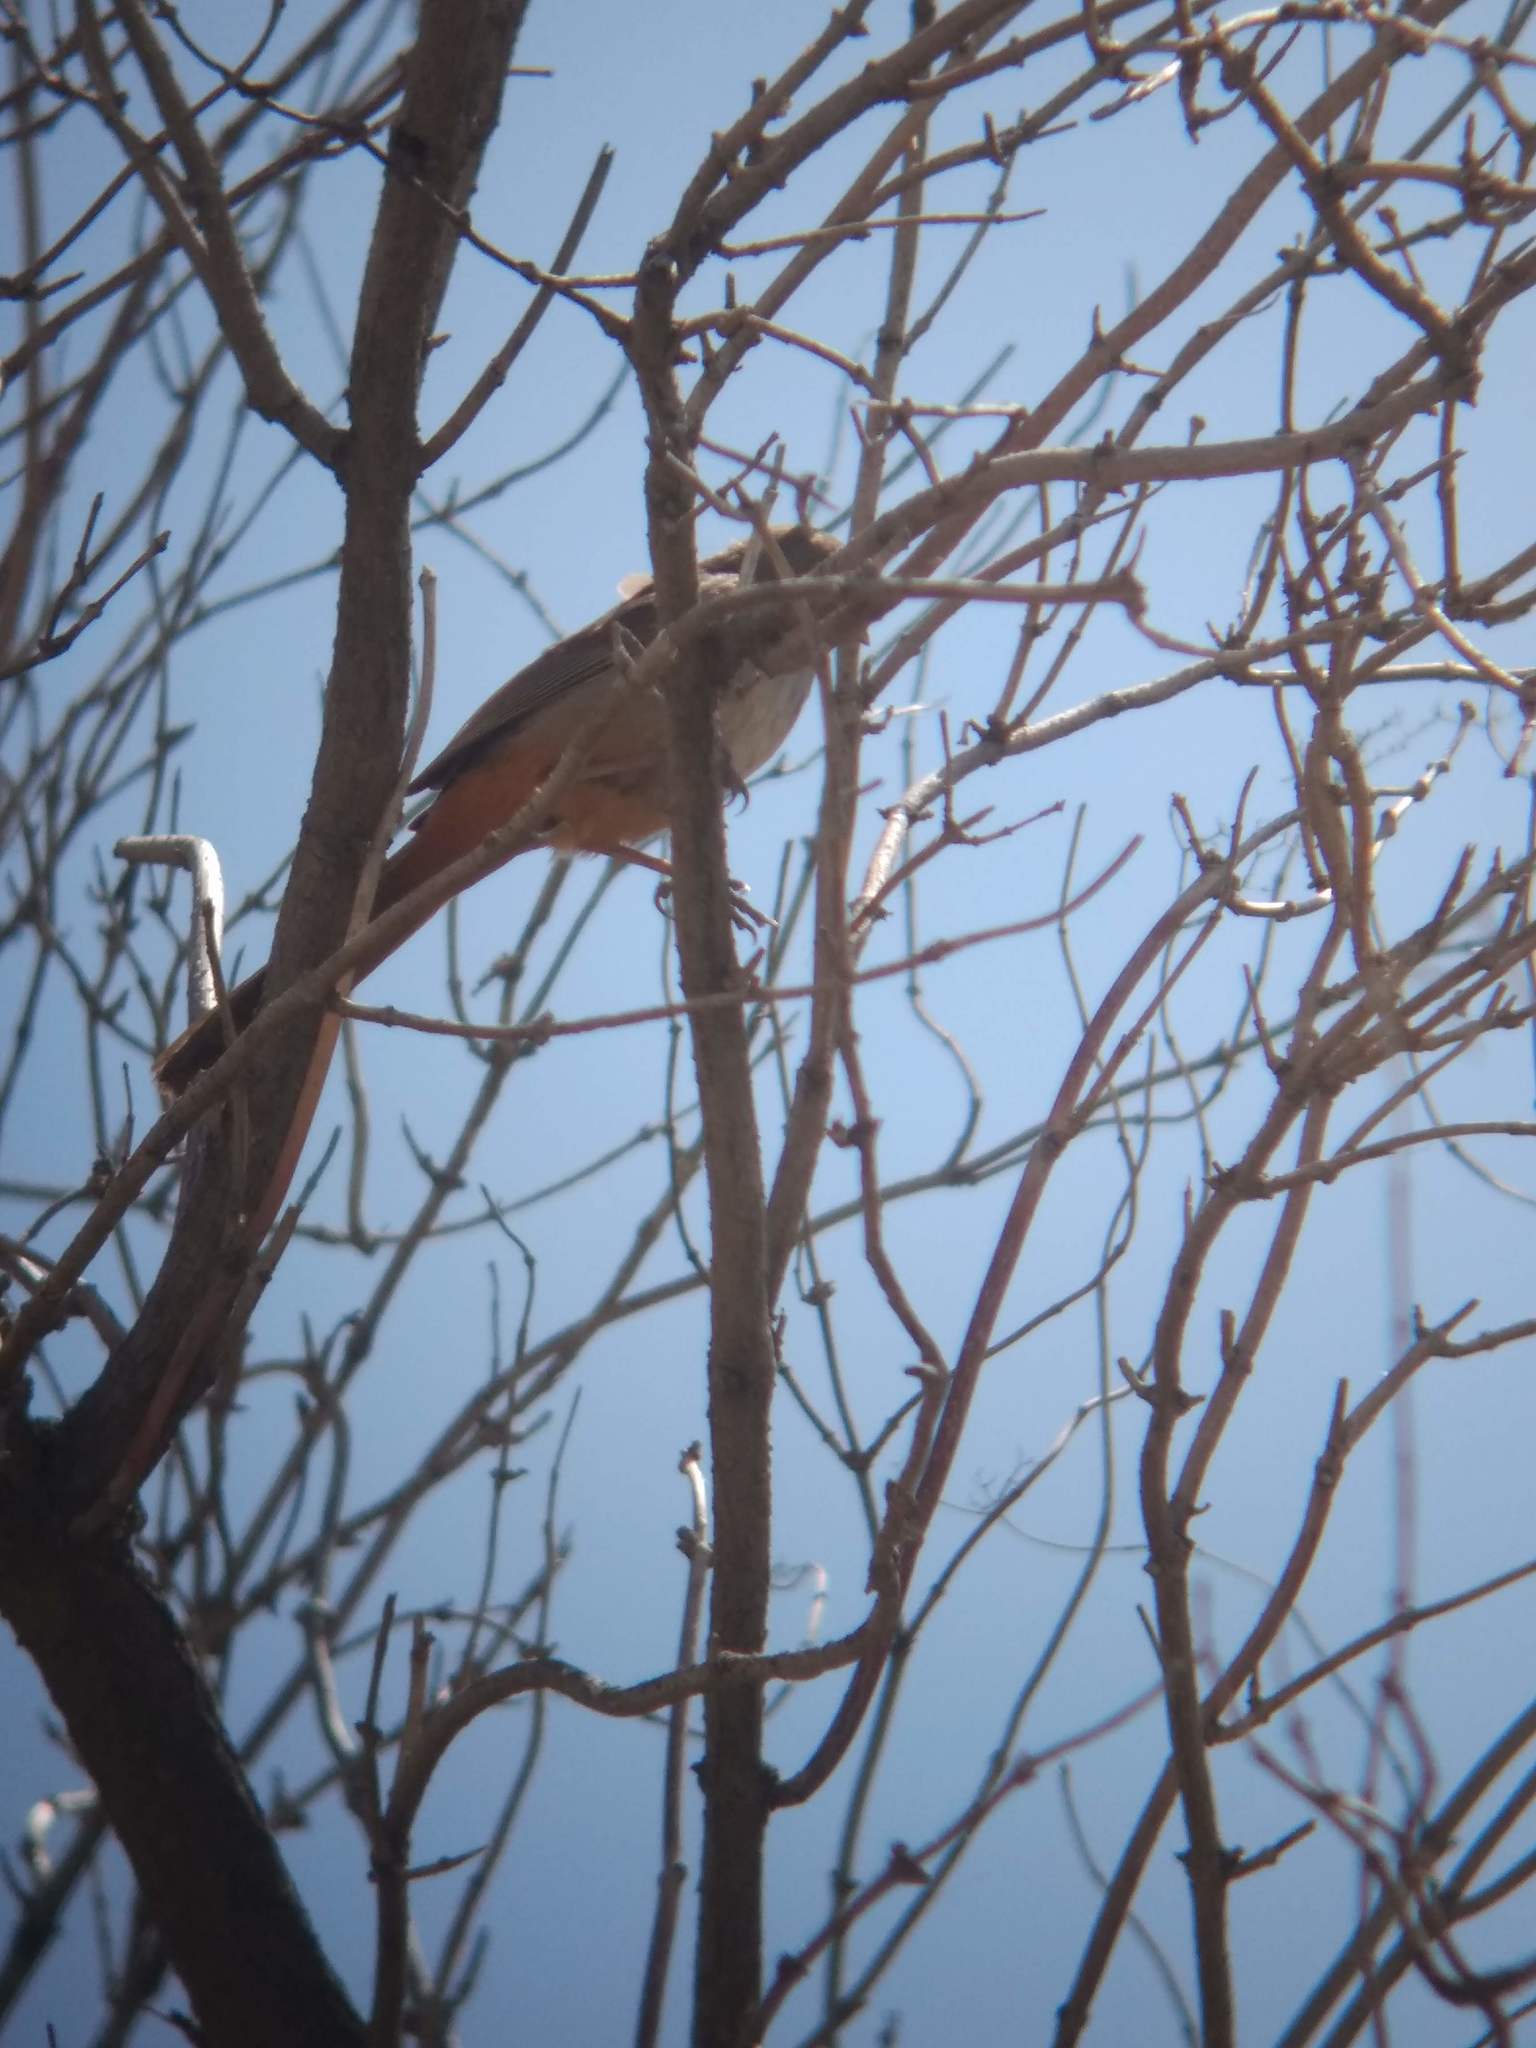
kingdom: Animalia
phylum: Chordata
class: Aves
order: Passeriformes
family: Passerellidae
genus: Melozone
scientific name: Melozone crissalis
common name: California towhee
